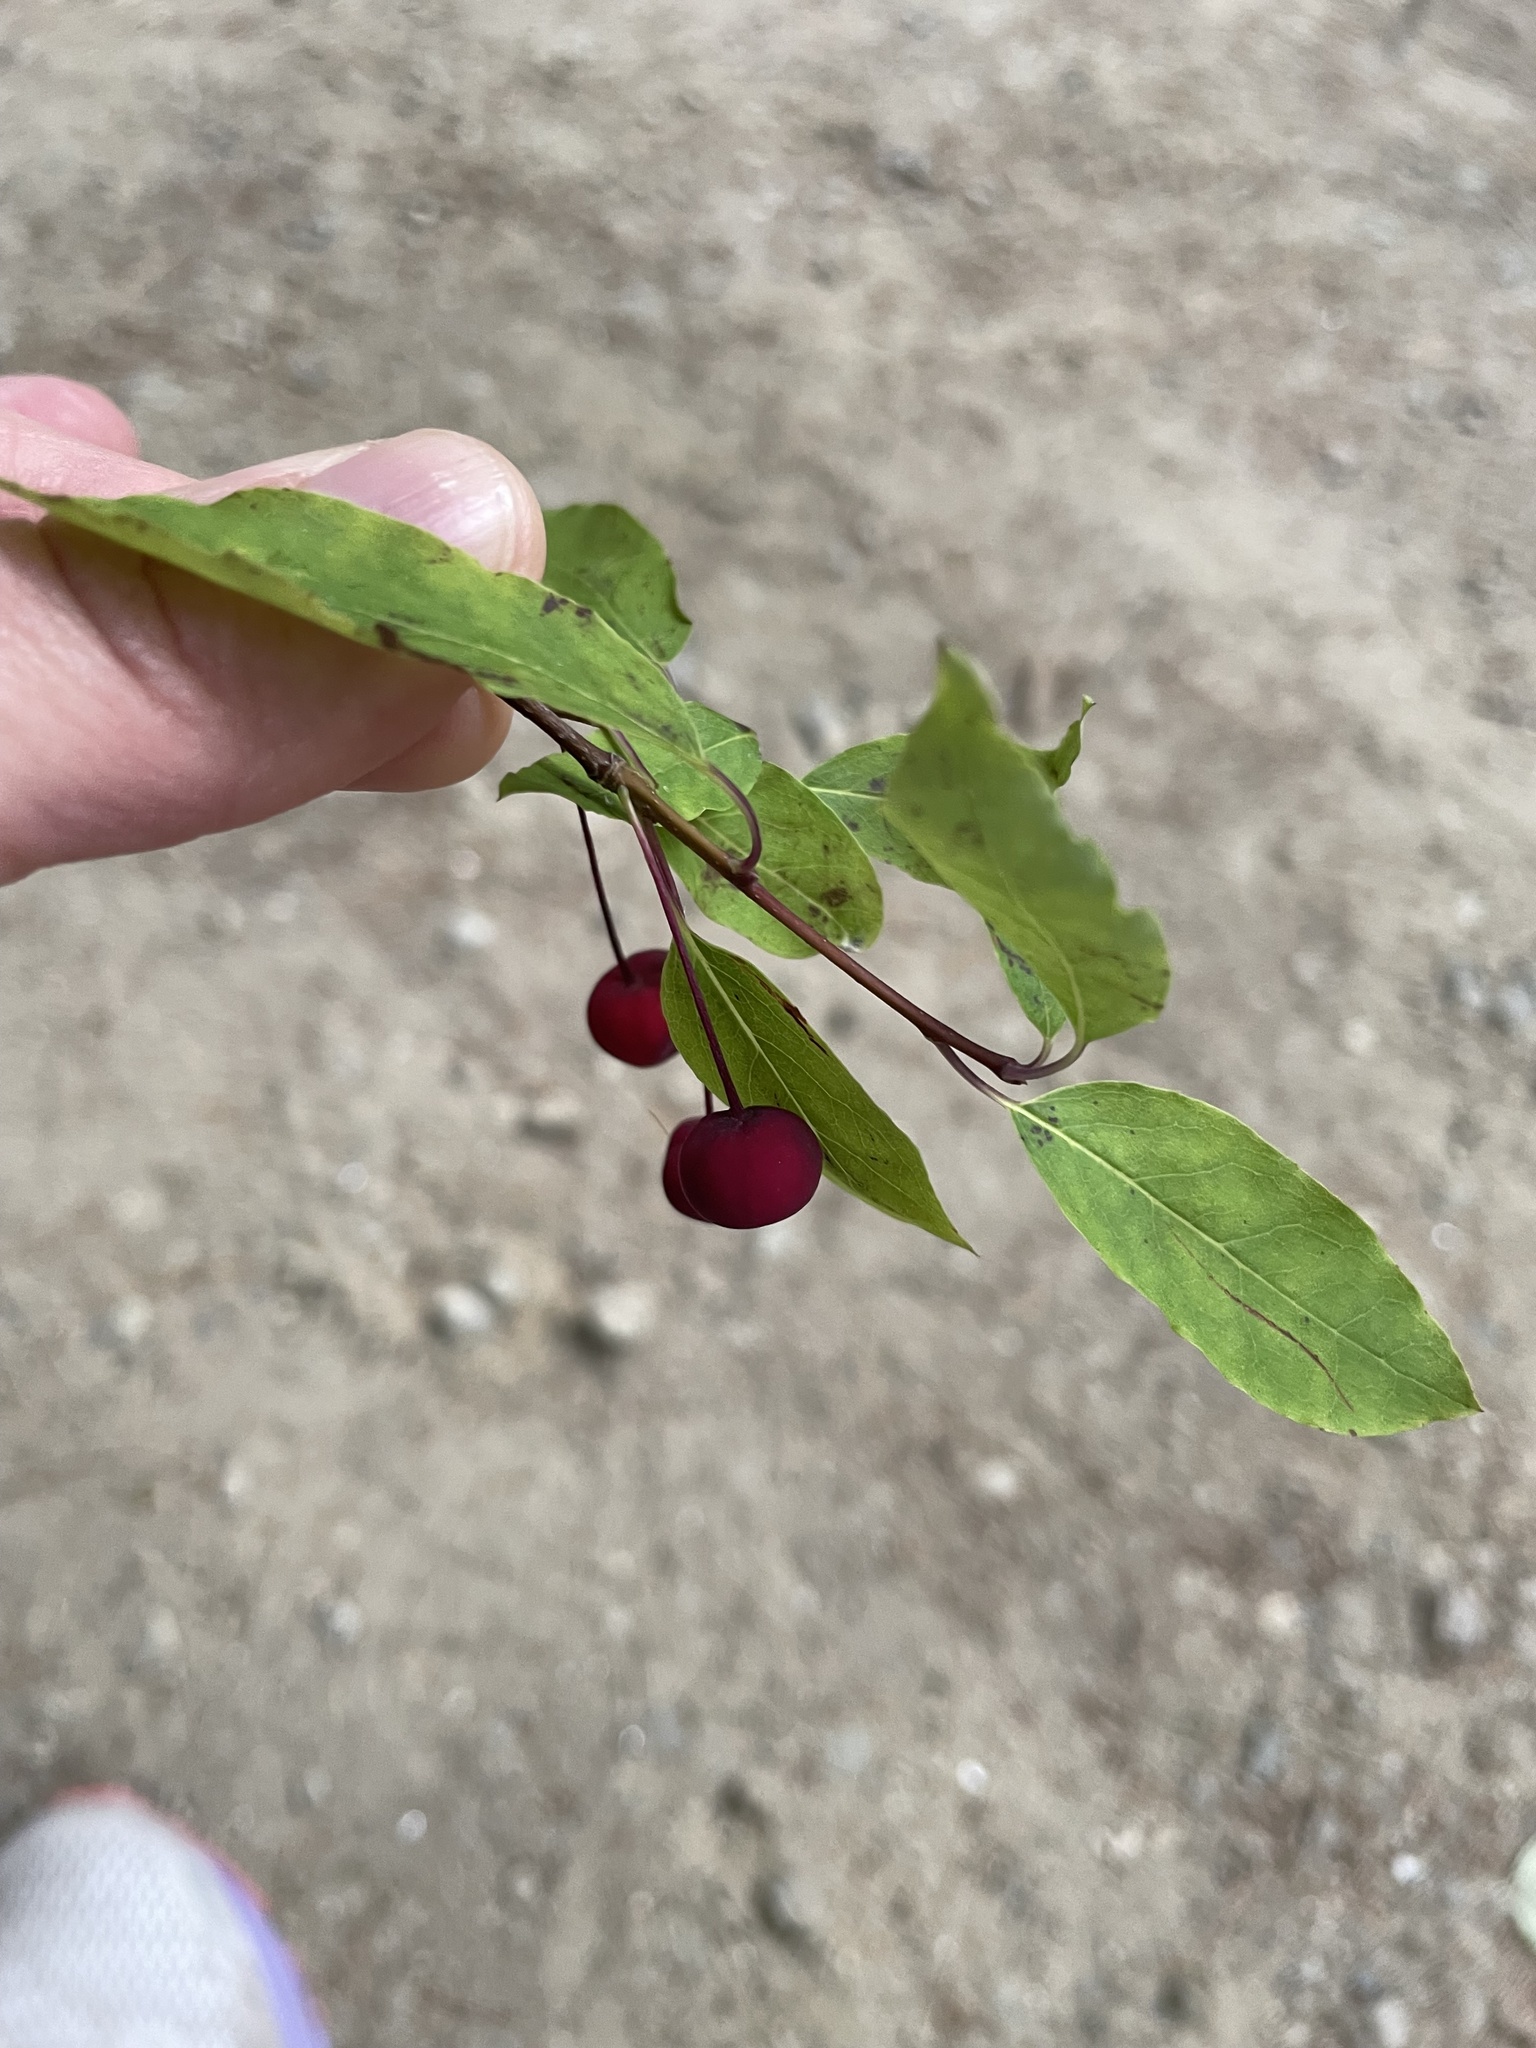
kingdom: Plantae
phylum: Tracheophyta
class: Magnoliopsida
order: Aquifoliales
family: Aquifoliaceae
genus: Ilex
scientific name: Ilex mucronata
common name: Catberry
